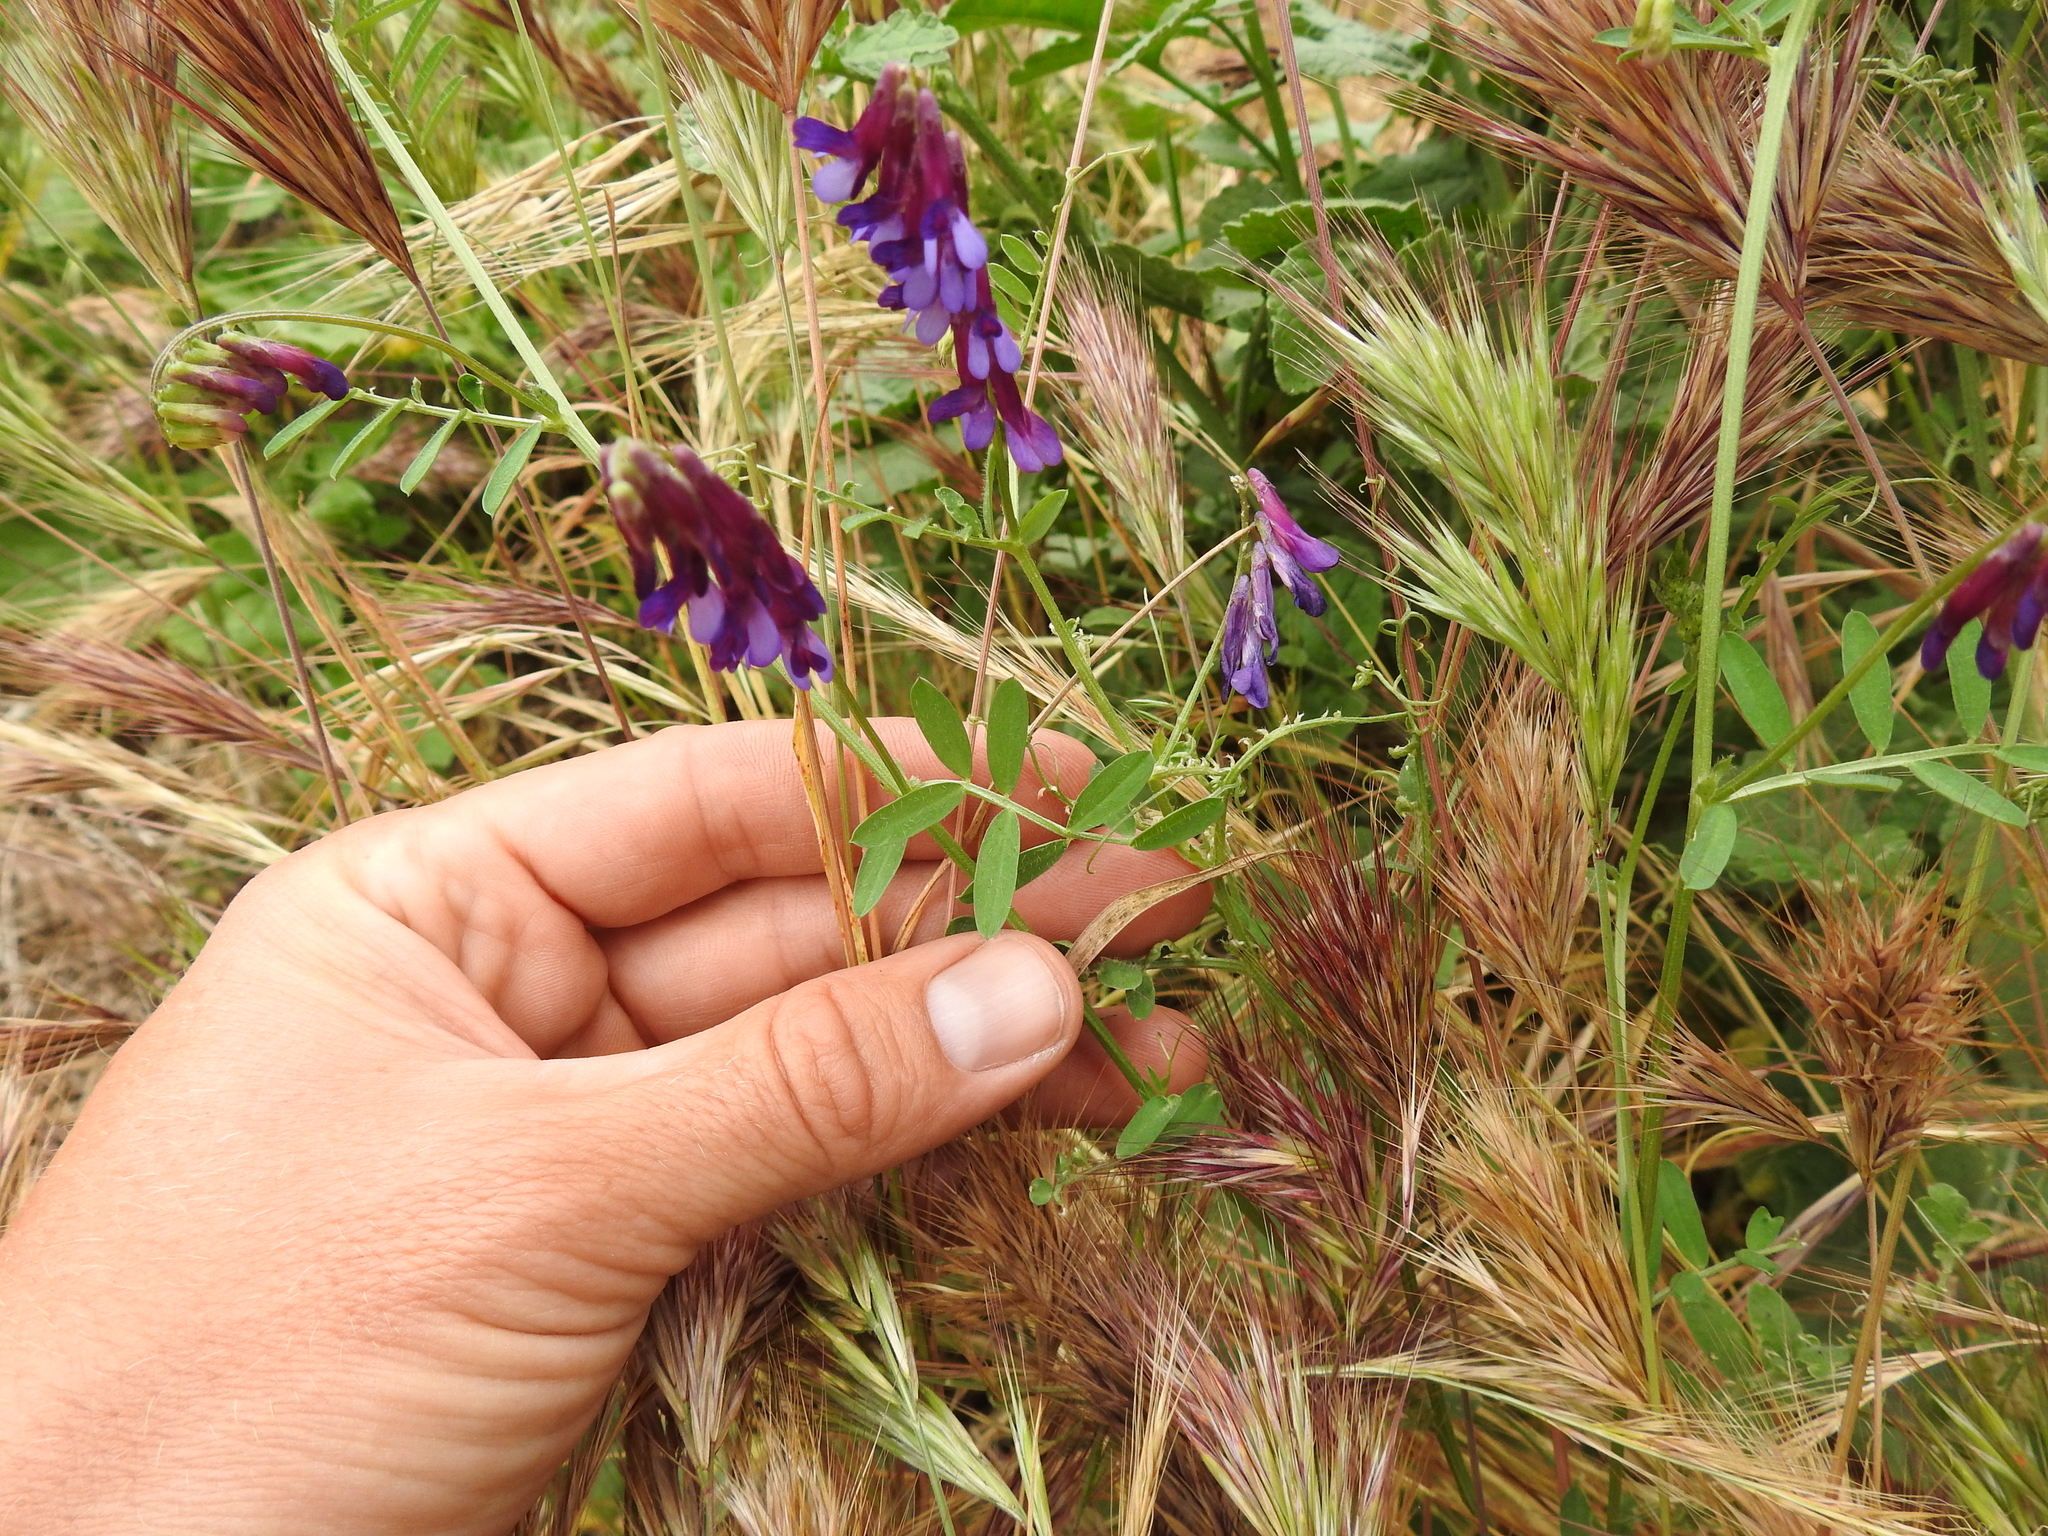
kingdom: Plantae
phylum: Tracheophyta
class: Magnoliopsida
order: Fabales
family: Fabaceae
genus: Vicia
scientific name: Vicia villosa
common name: Fodder vetch
